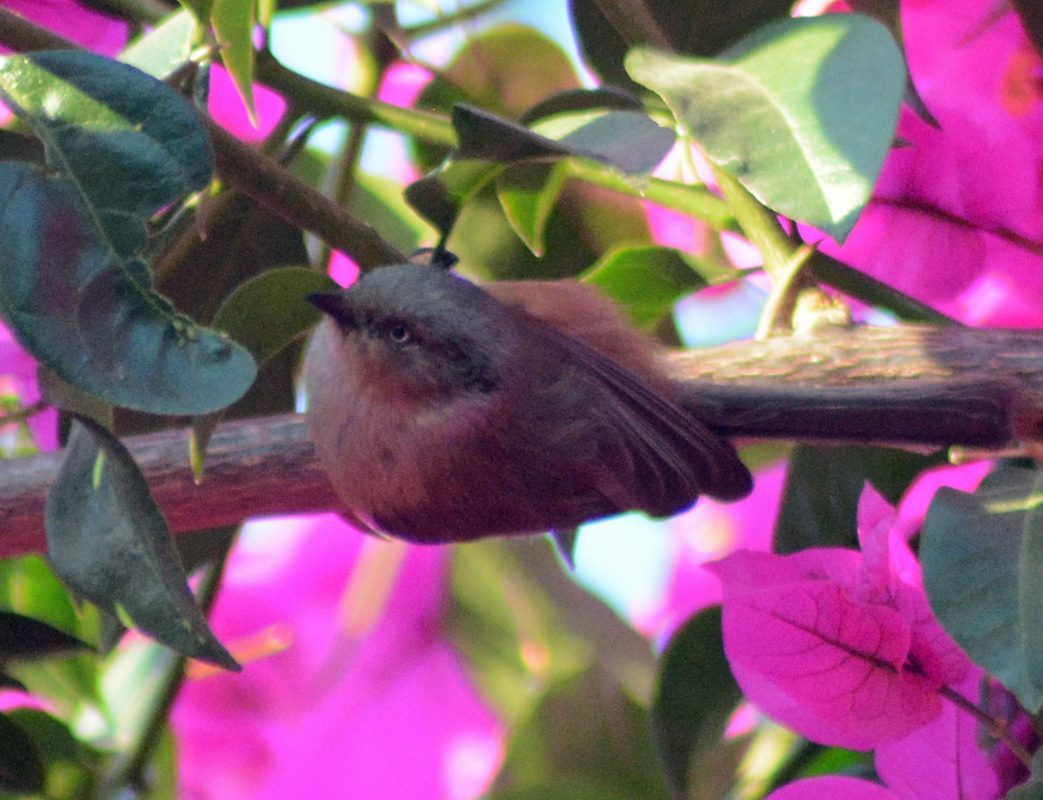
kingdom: Animalia
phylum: Chordata
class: Aves
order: Passeriformes
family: Aegithalidae
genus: Psaltriparus
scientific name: Psaltriparus minimus
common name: American bushtit
